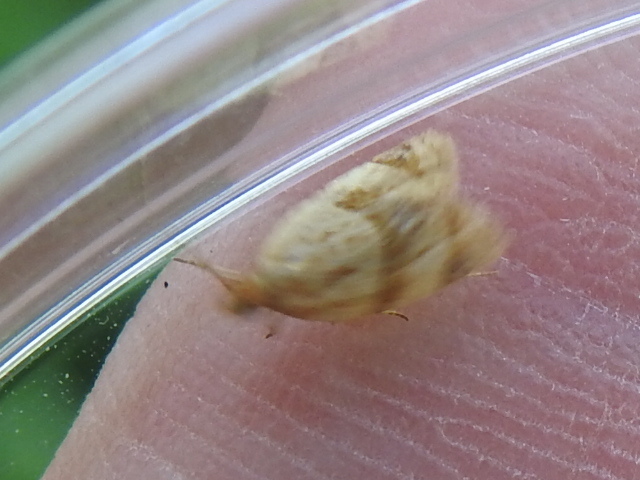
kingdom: Animalia
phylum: Arthropoda
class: Insecta
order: Lepidoptera
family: Tortricidae
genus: Clepsis
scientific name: Clepsis peritana
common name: Garden tortrix
